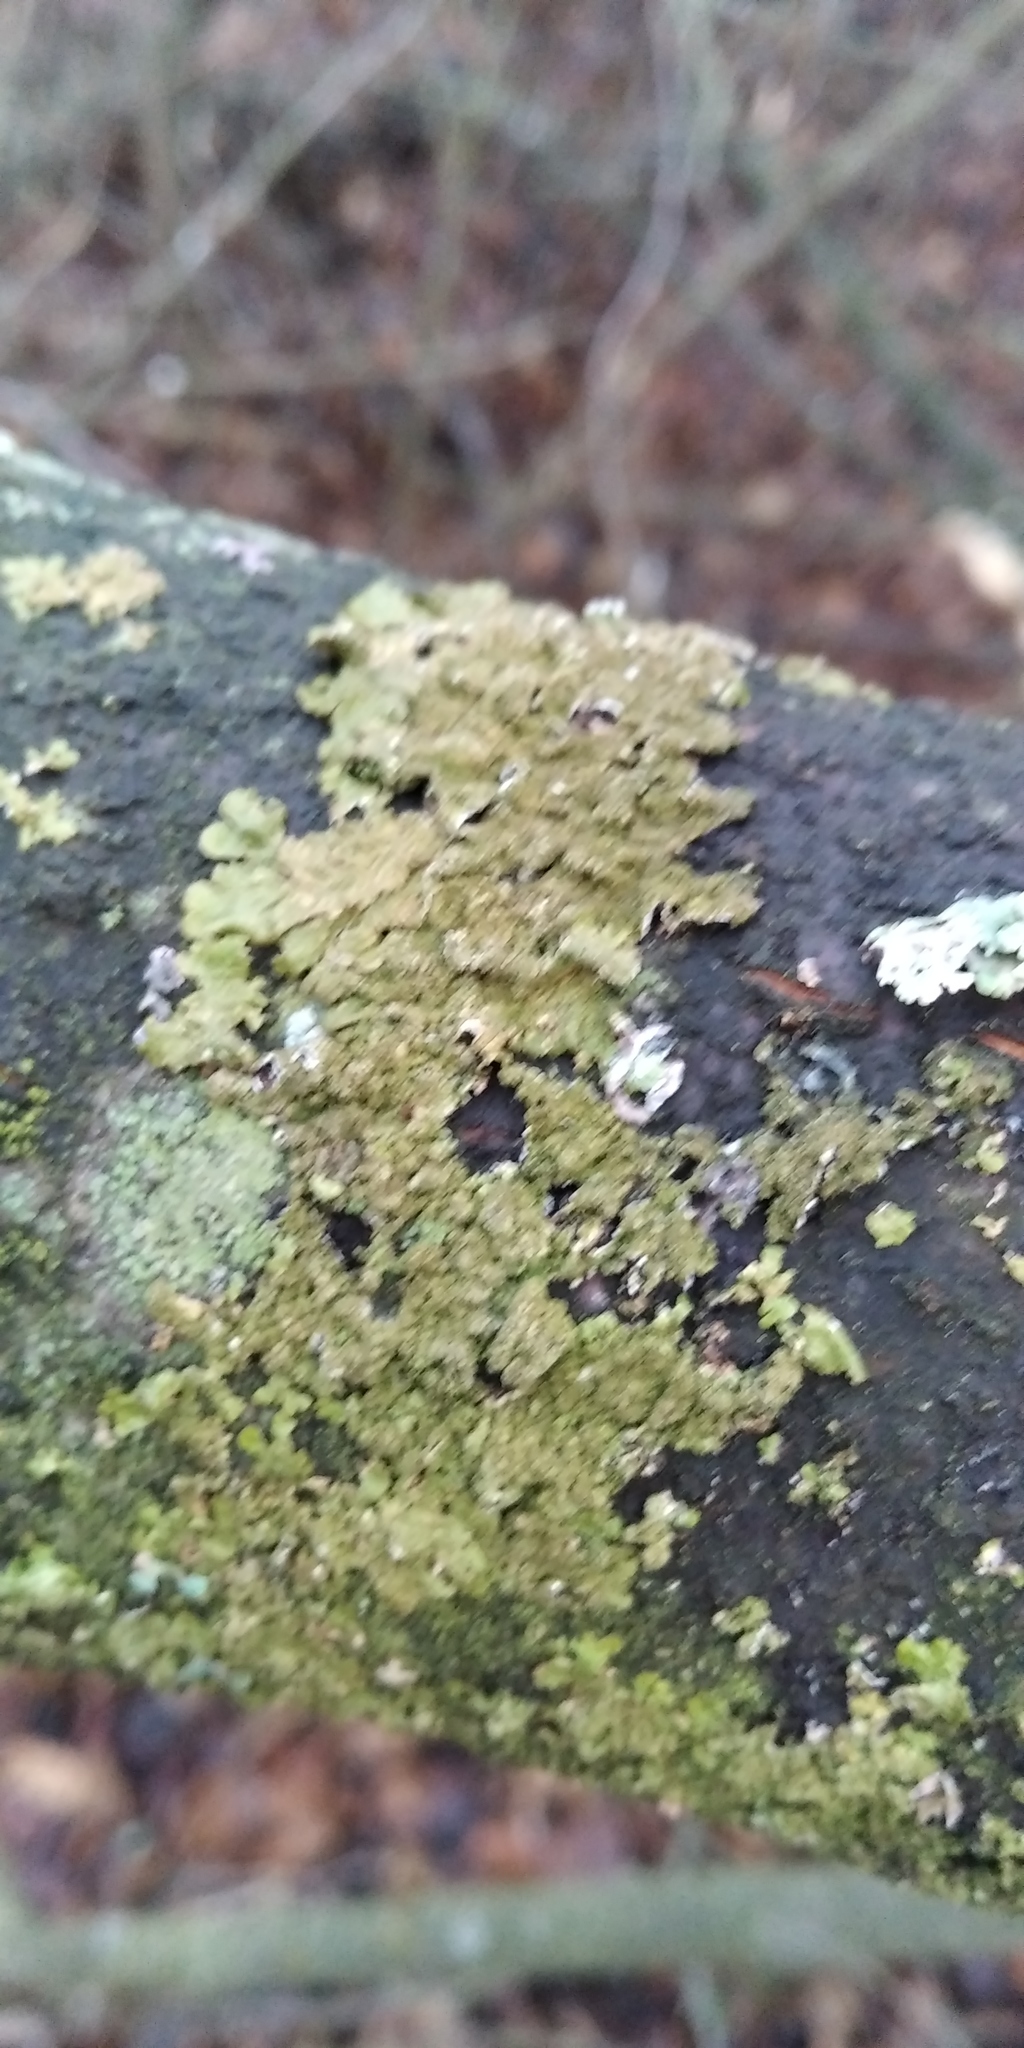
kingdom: Fungi
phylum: Ascomycota
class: Lecanoromycetes
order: Lecanorales
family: Parmeliaceae
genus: Melanelixia
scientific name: Melanelixia subaurifera
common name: Abraded camouflage lichen
